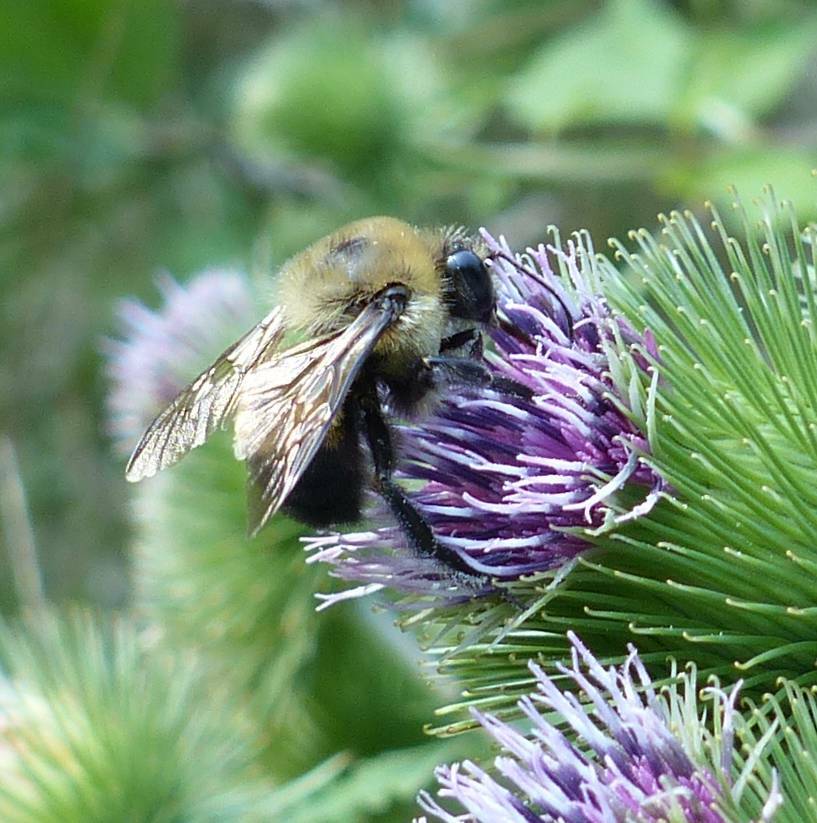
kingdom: Animalia
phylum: Arthropoda
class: Insecta
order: Hymenoptera
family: Apidae
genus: Bombus
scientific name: Bombus griseocollis
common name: Brown-belted bumble bee
